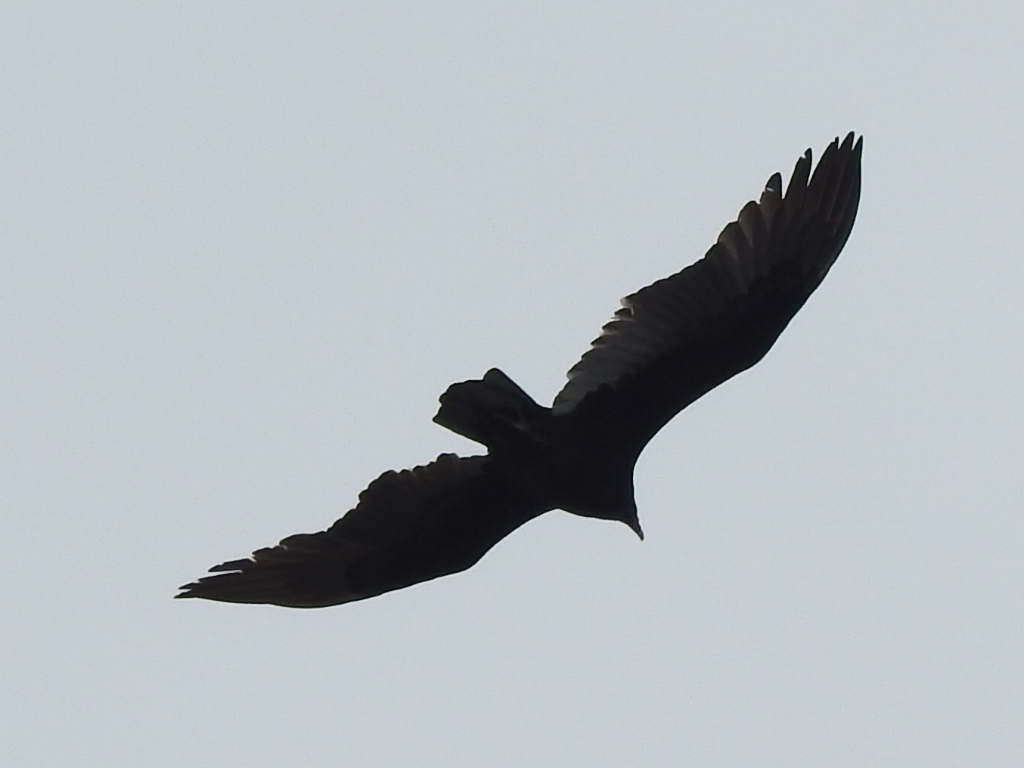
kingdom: Animalia
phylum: Chordata
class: Aves
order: Accipitriformes
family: Cathartidae
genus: Cathartes
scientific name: Cathartes aura
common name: Turkey vulture
